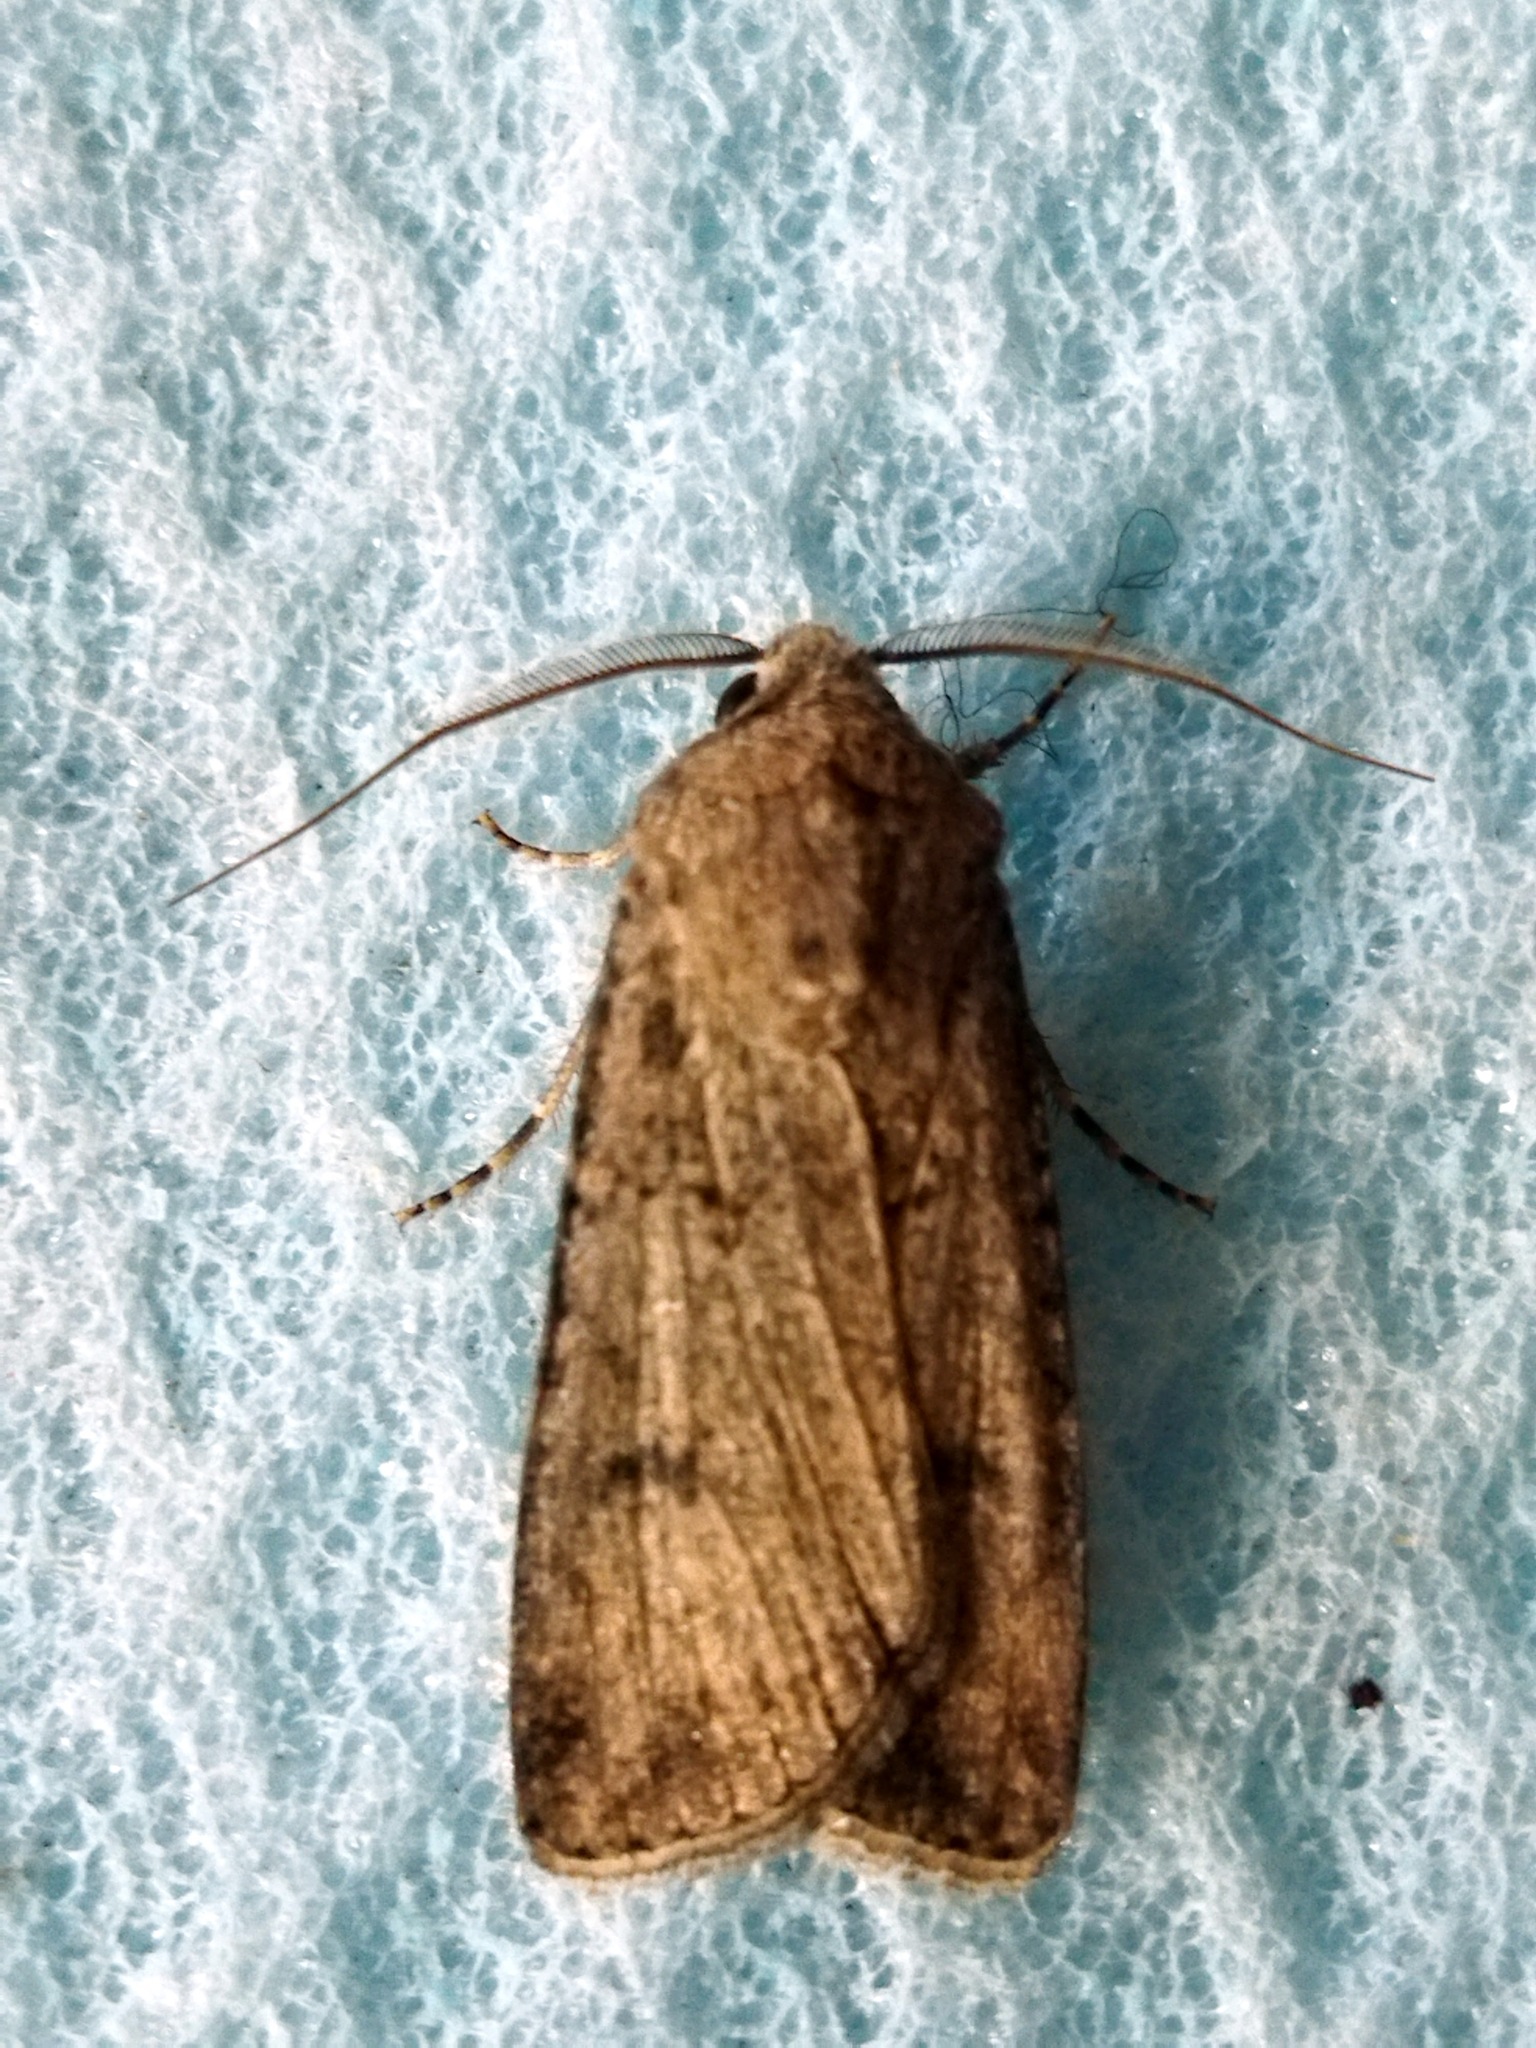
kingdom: Animalia
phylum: Arthropoda
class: Insecta
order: Lepidoptera
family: Noctuidae
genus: Agrotis
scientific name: Agrotis segetum
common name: Turnip moth
